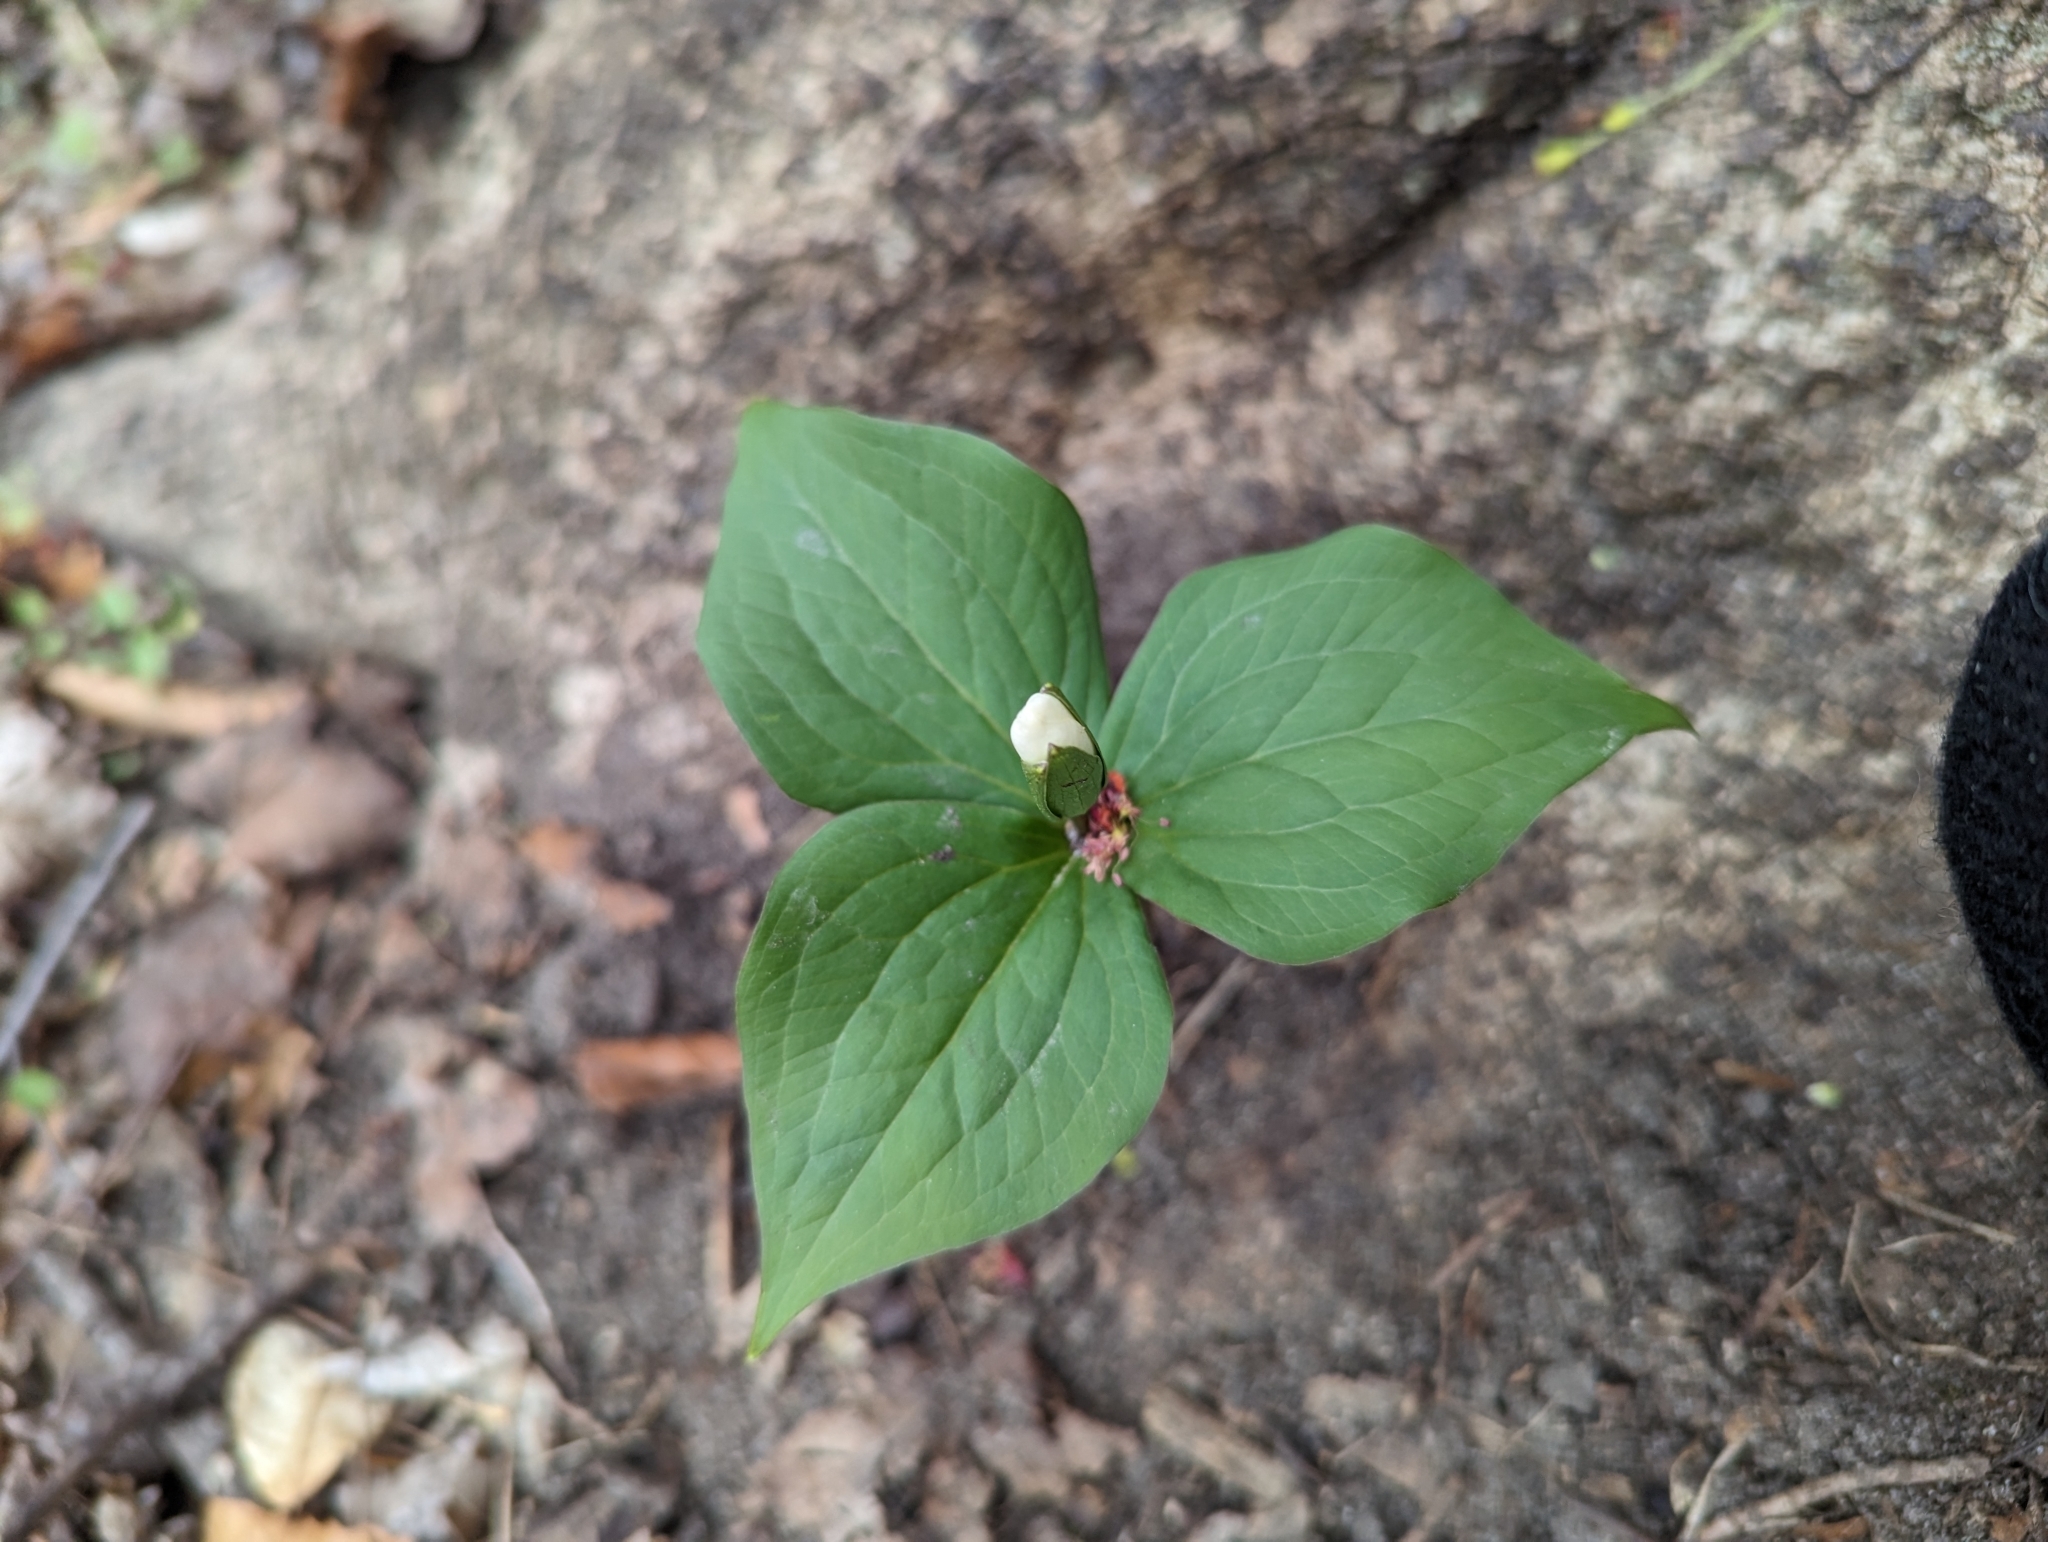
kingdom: Plantae
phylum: Tracheophyta
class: Liliopsida
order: Liliales
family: Melanthiaceae
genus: Trillium
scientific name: Trillium grandiflorum
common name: Great white trillium
